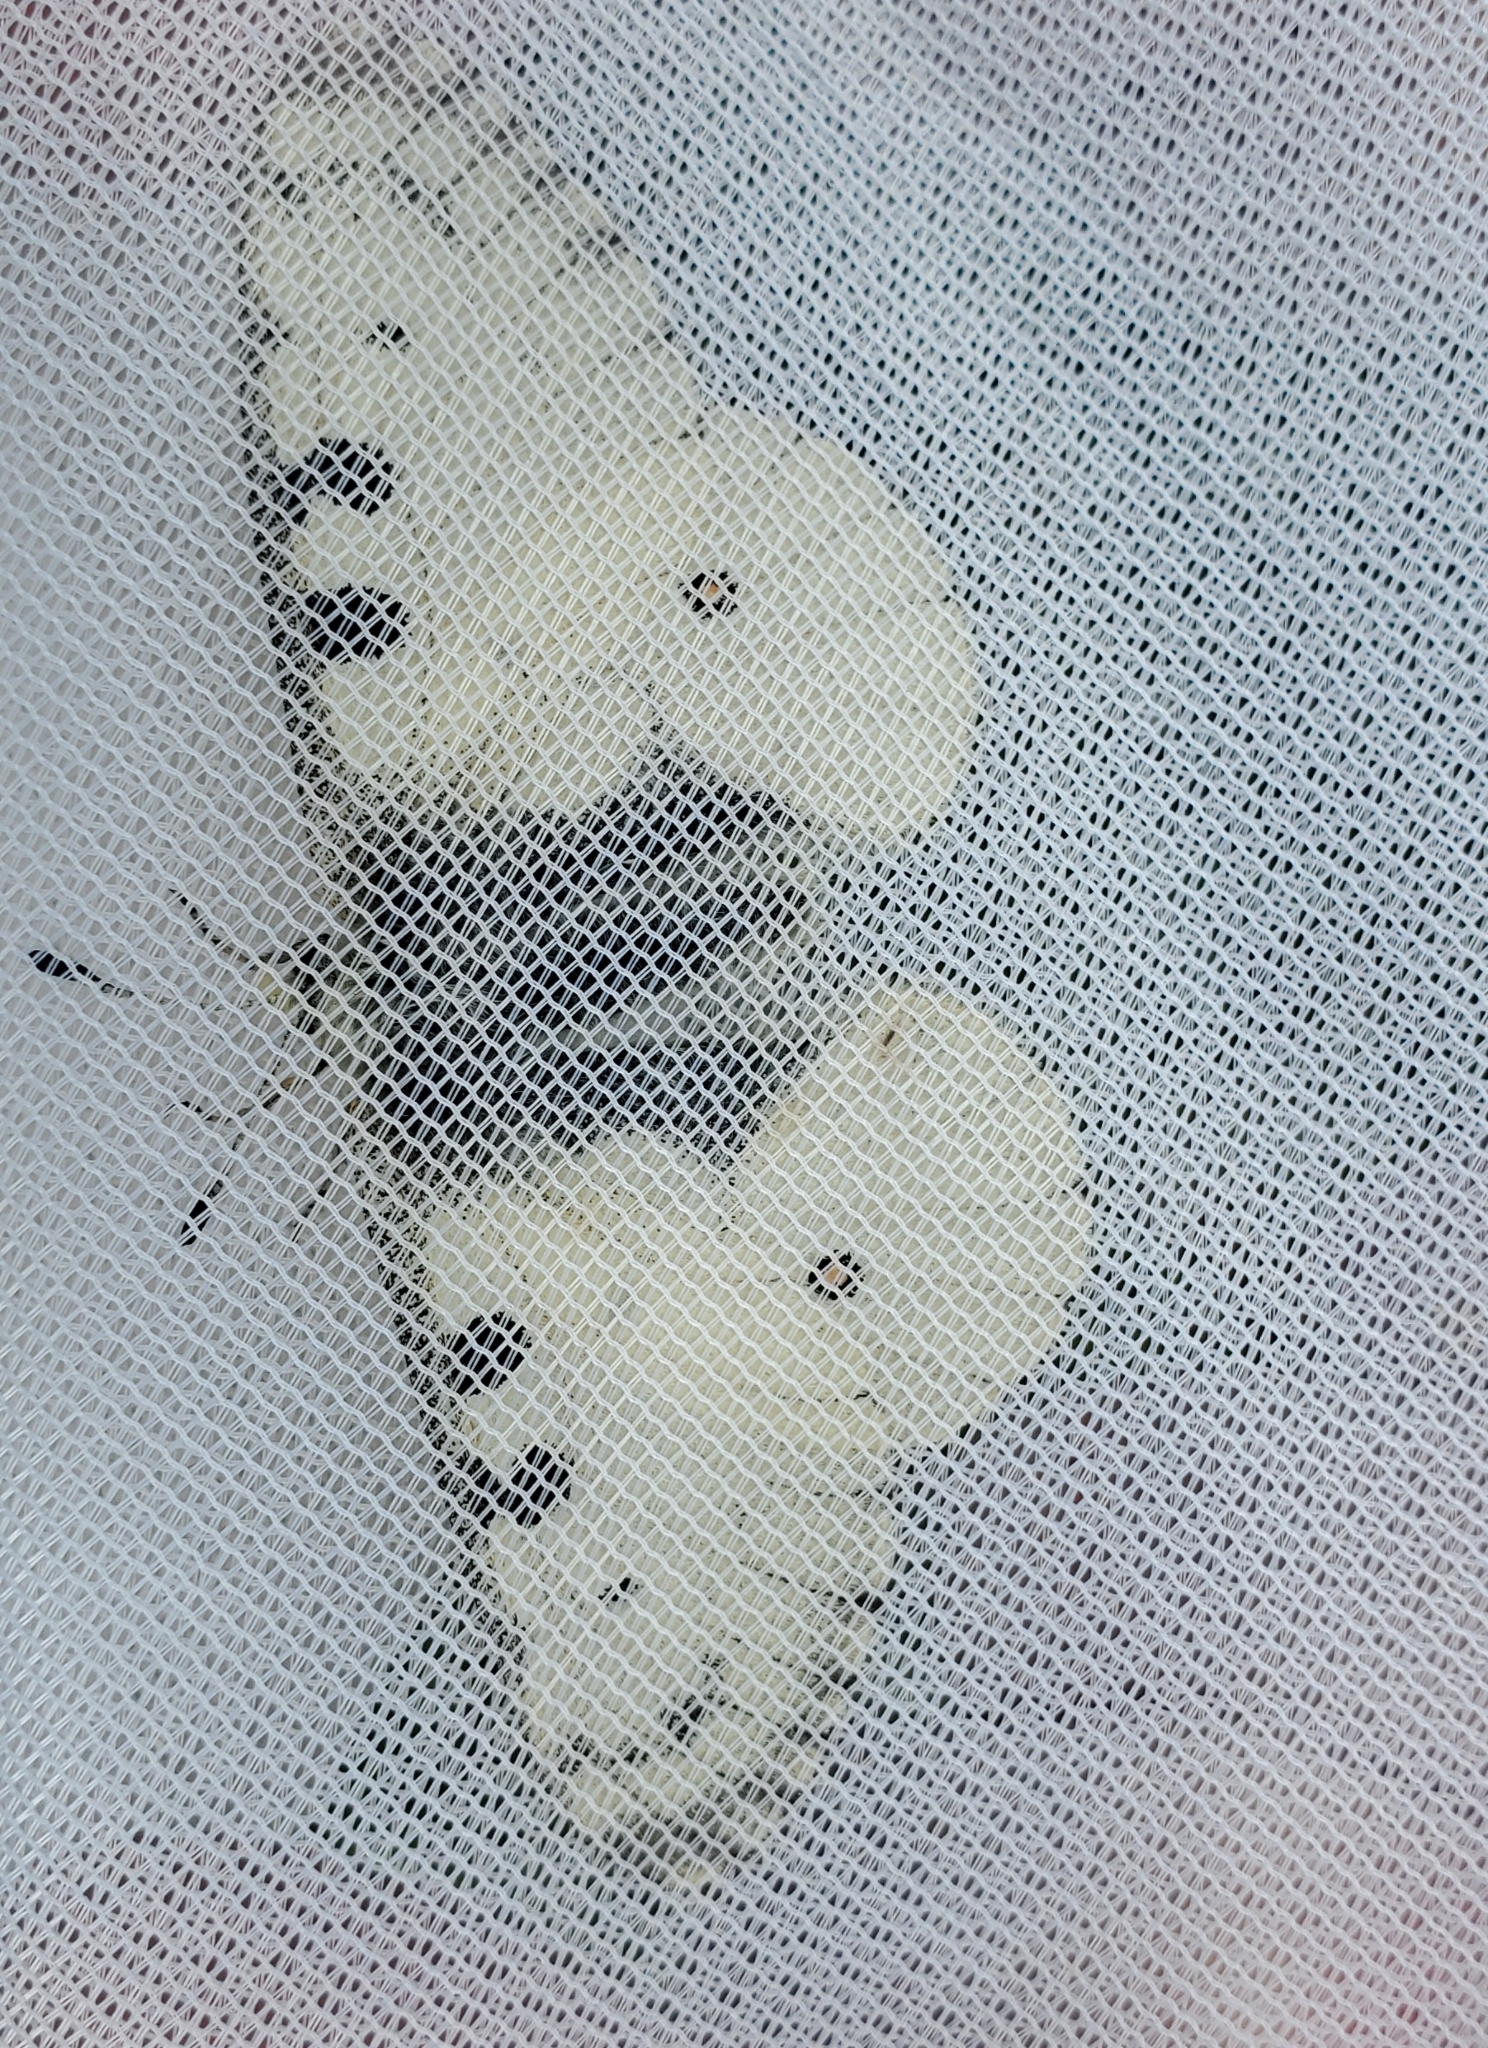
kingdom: Animalia
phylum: Arthropoda
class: Insecta
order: Lepidoptera
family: Papilionidae
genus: Parnassius
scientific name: Parnassius smintheus
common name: Mountain parnassian
